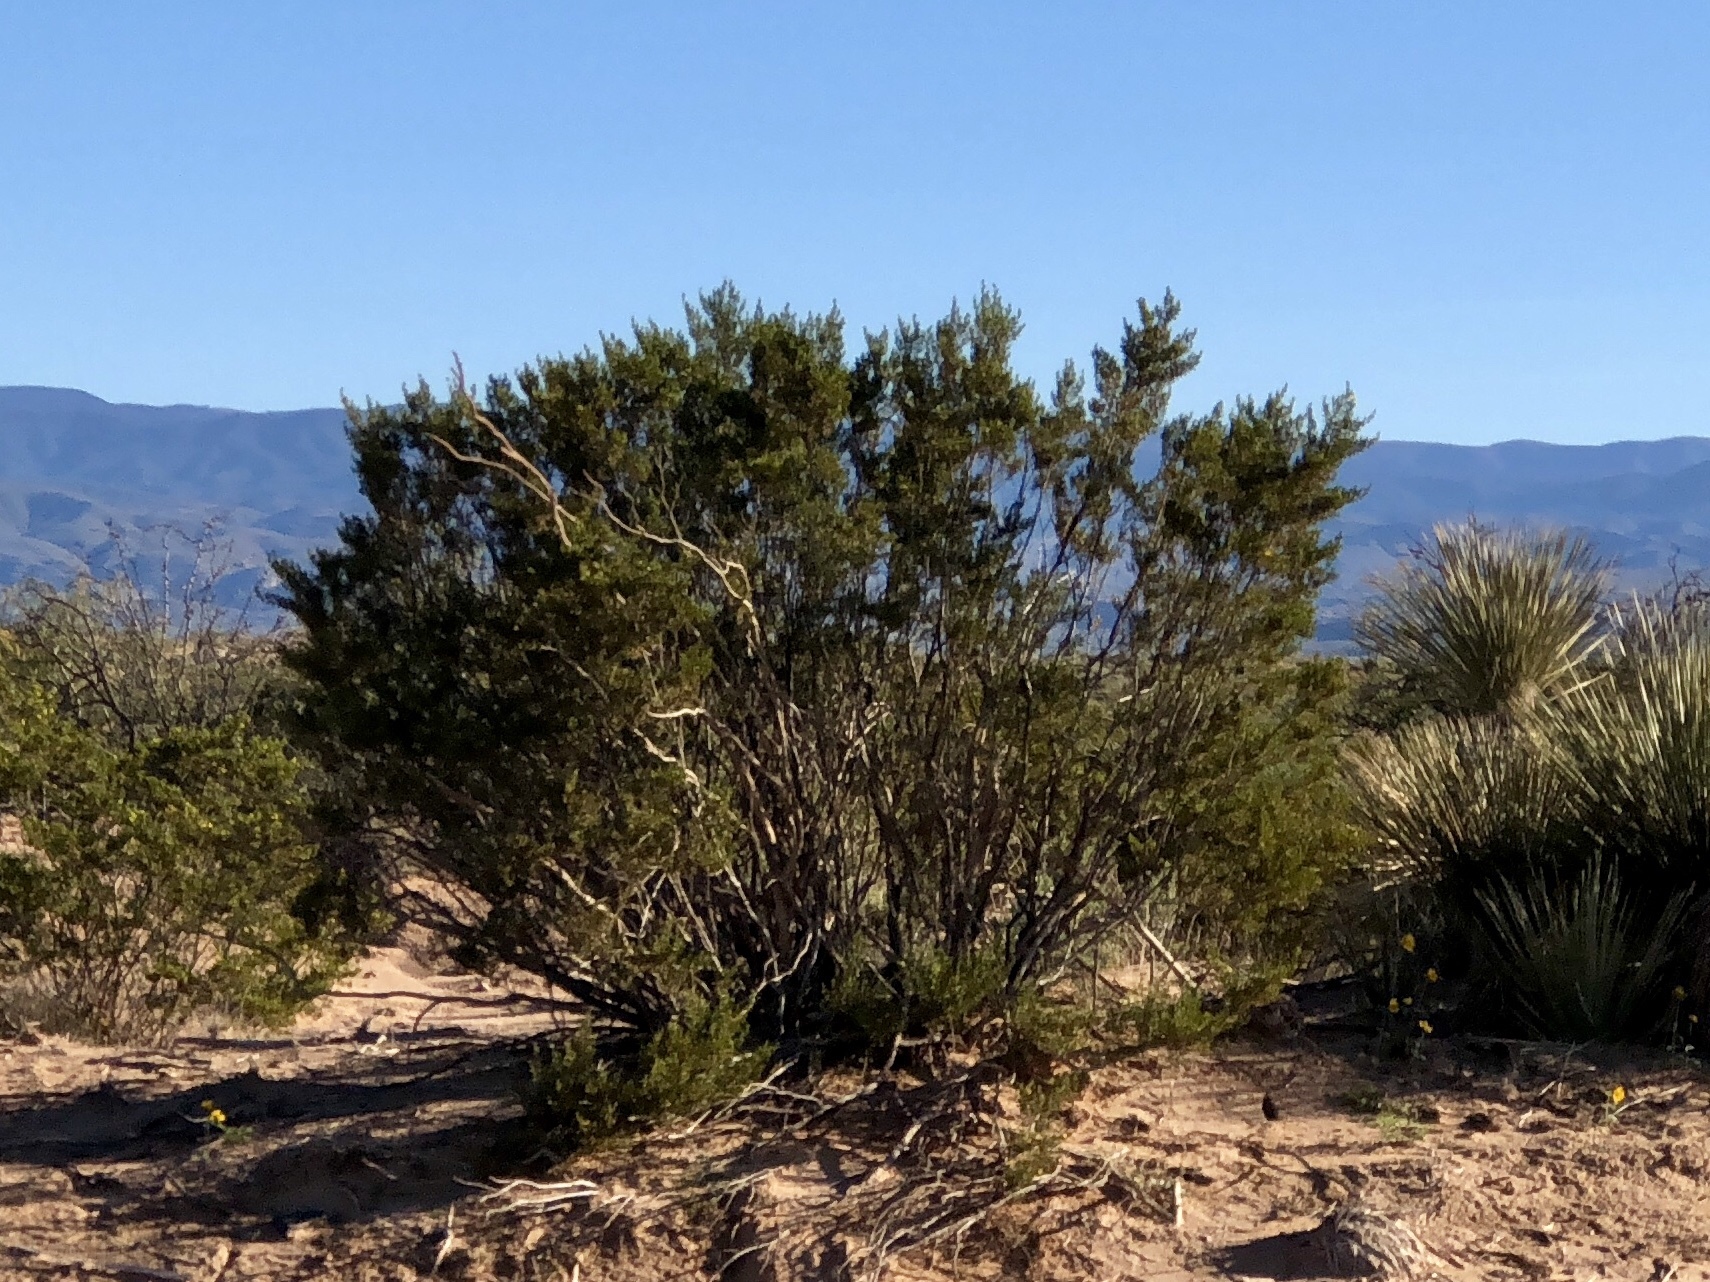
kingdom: Plantae
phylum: Tracheophyta
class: Magnoliopsida
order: Zygophyllales
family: Zygophyllaceae
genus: Larrea
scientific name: Larrea tridentata
